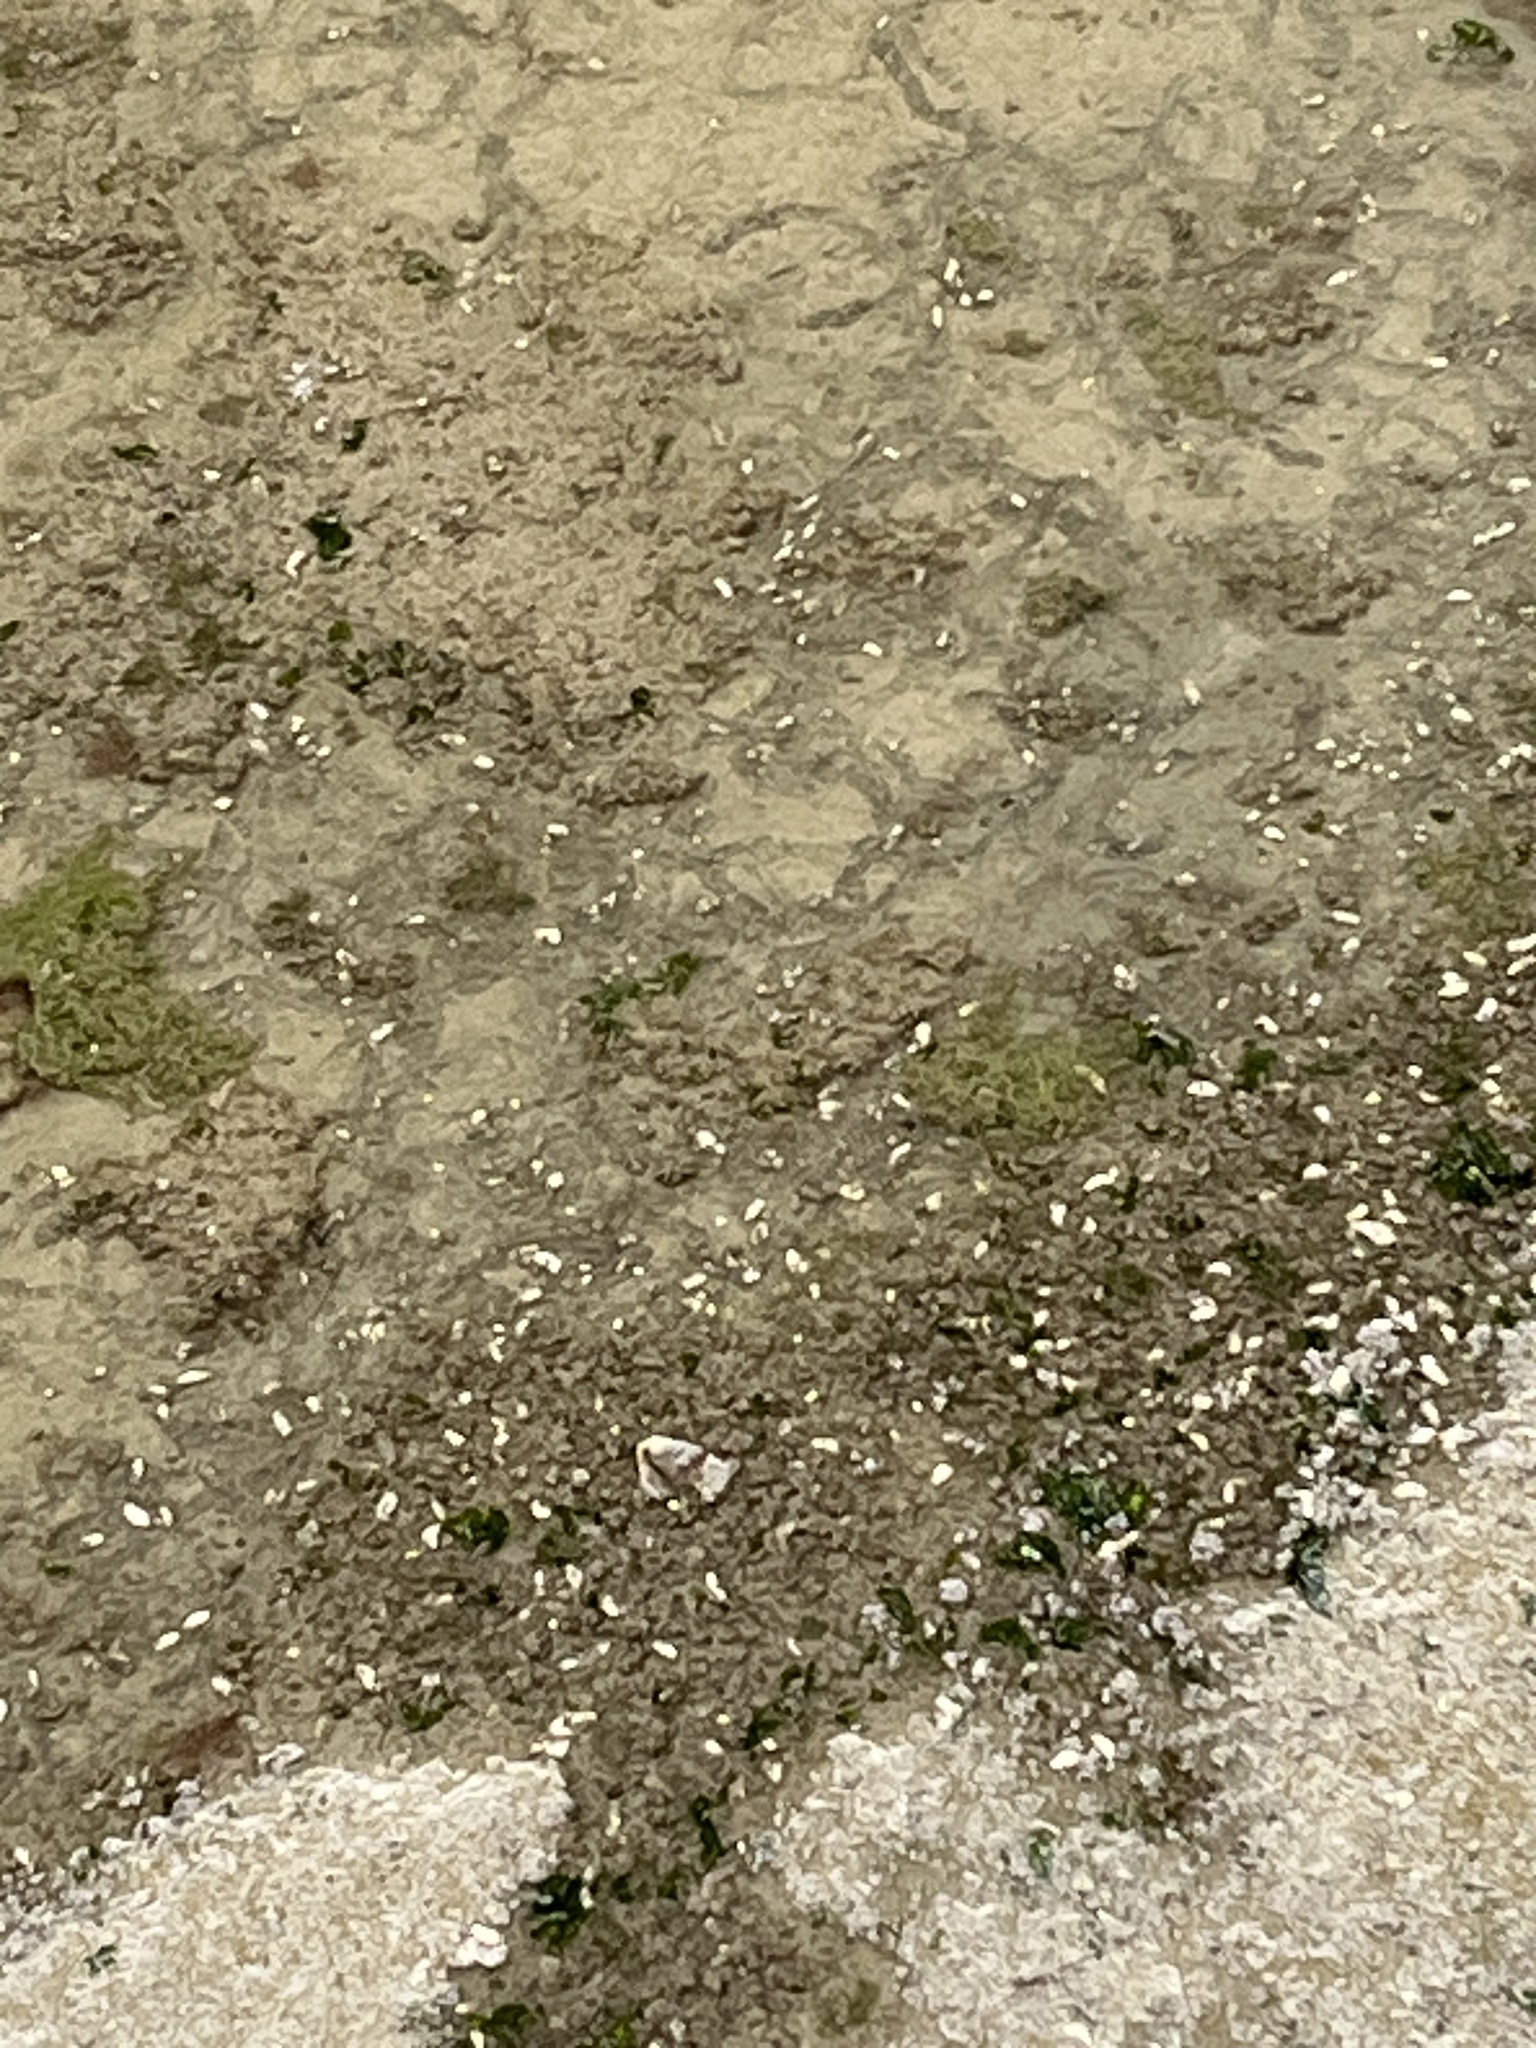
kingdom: Animalia
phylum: Mollusca
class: Gastropoda
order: Cephalaspidea
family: Philinidae
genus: Philine
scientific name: Philine auriformis
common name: Sea snail
